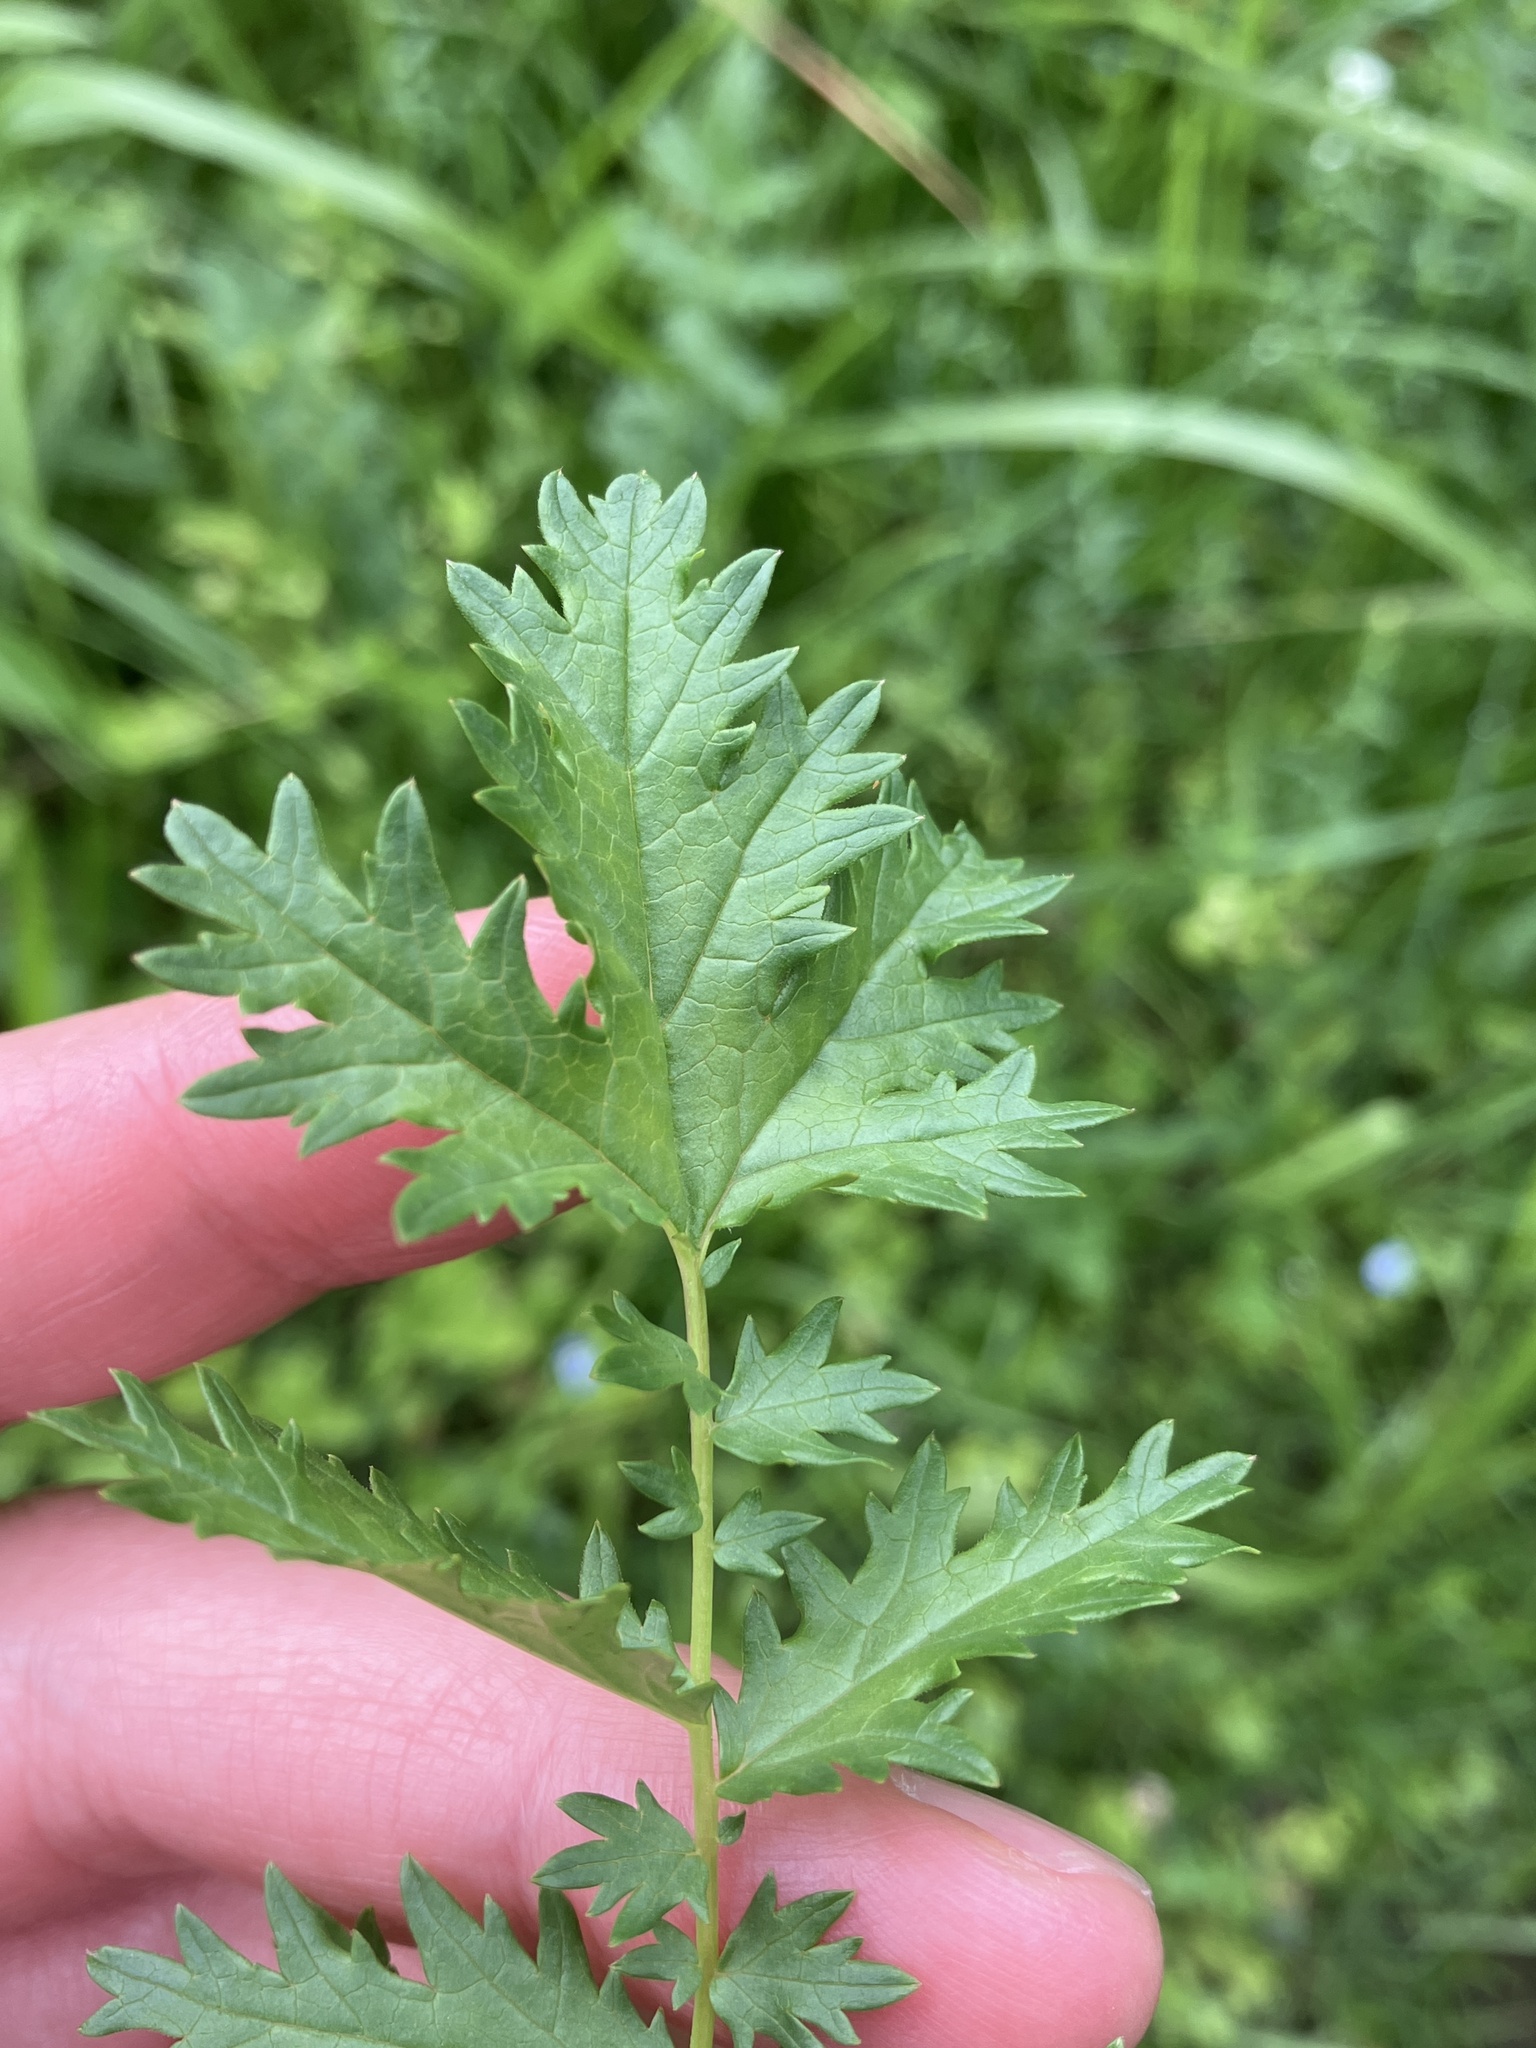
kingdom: Plantae
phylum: Tracheophyta
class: Magnoliopsida
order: Rosales
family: Rosaceae
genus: Filipendula
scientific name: Filipendula vulgaris
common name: Dropwort
